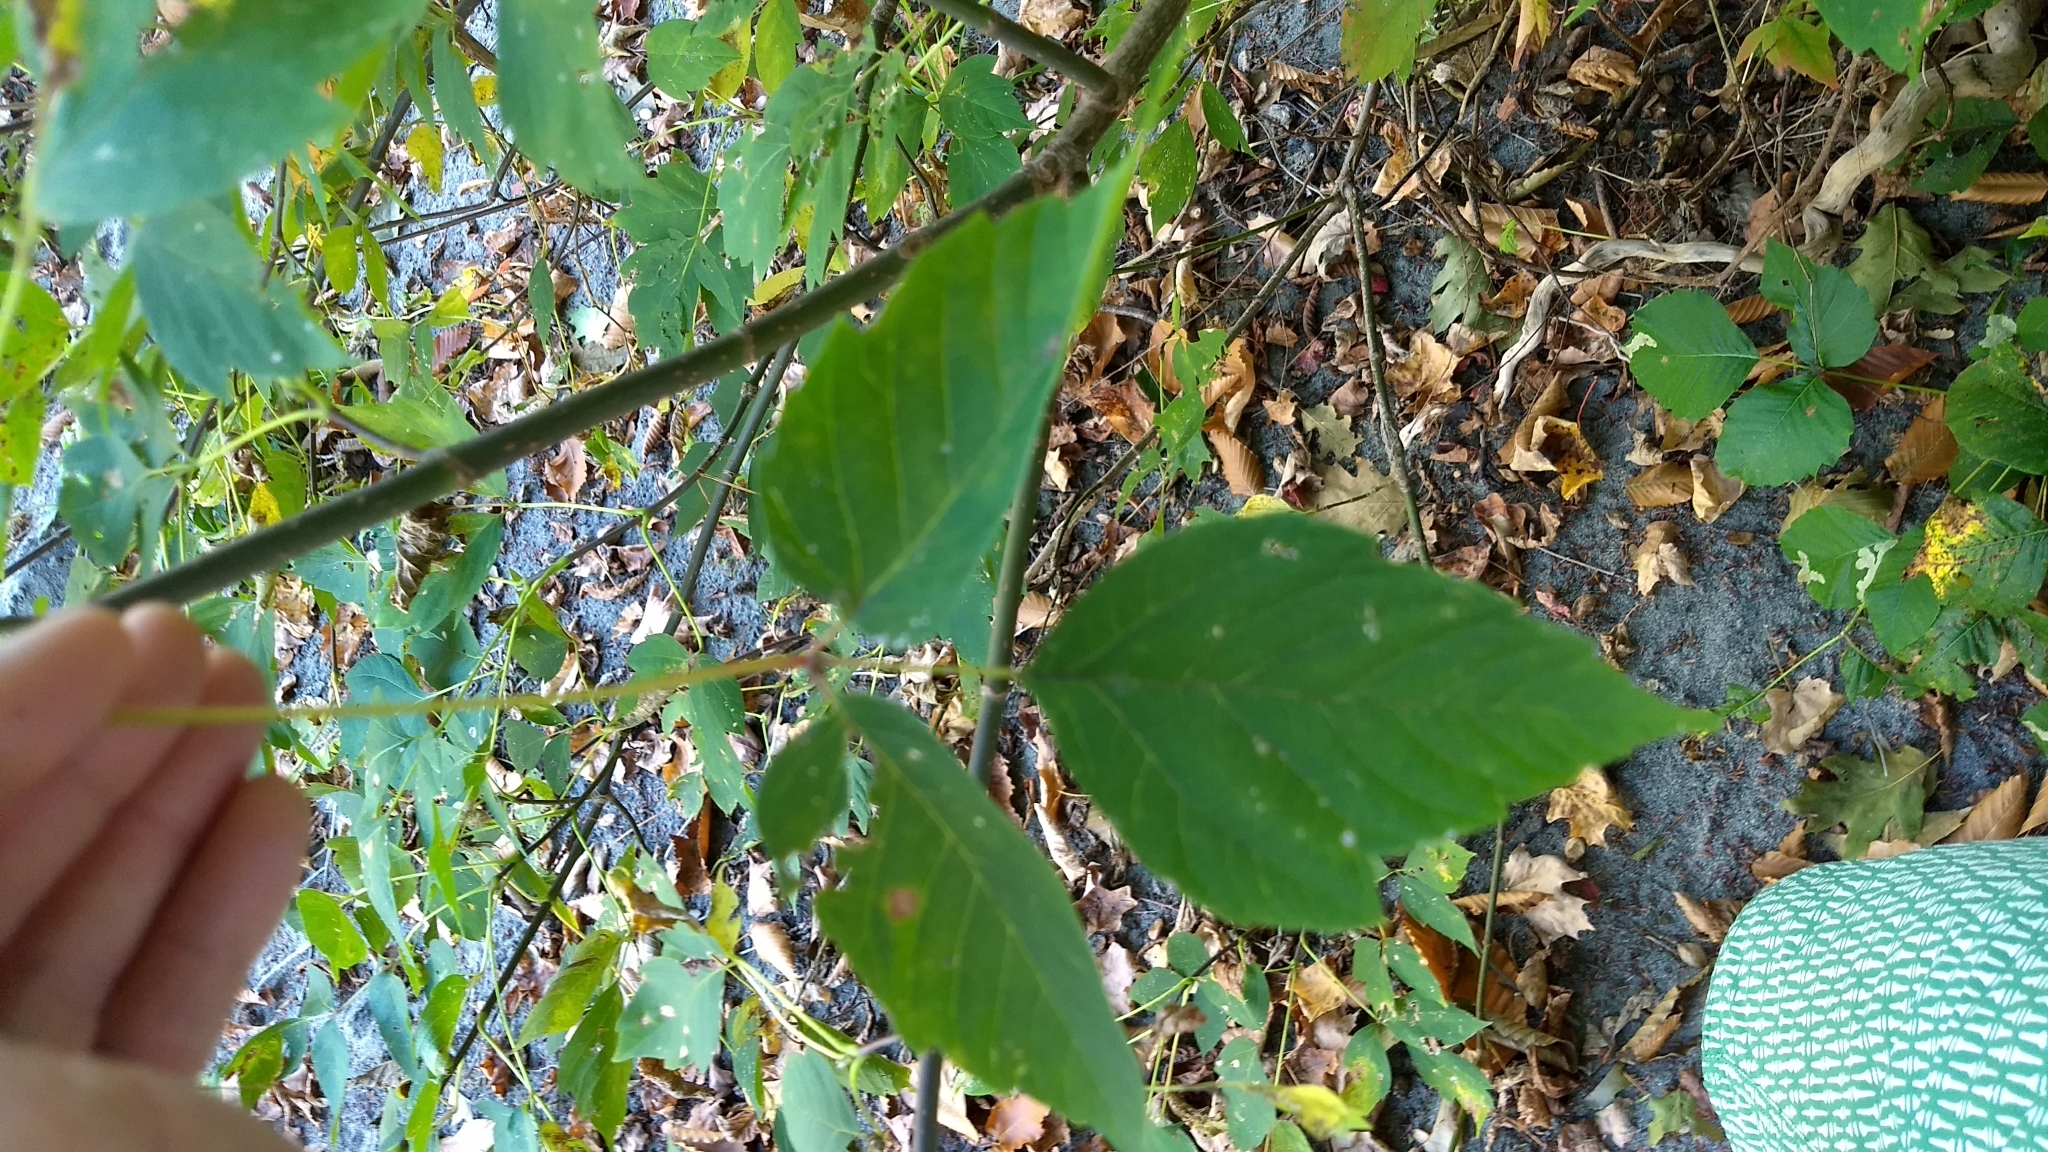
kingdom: Plantae
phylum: Tracheophyta
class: Magnoliopsida
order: Sapindales
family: Sapindaceae
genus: Acer
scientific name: Acer negundo
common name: Ashleaf maple
